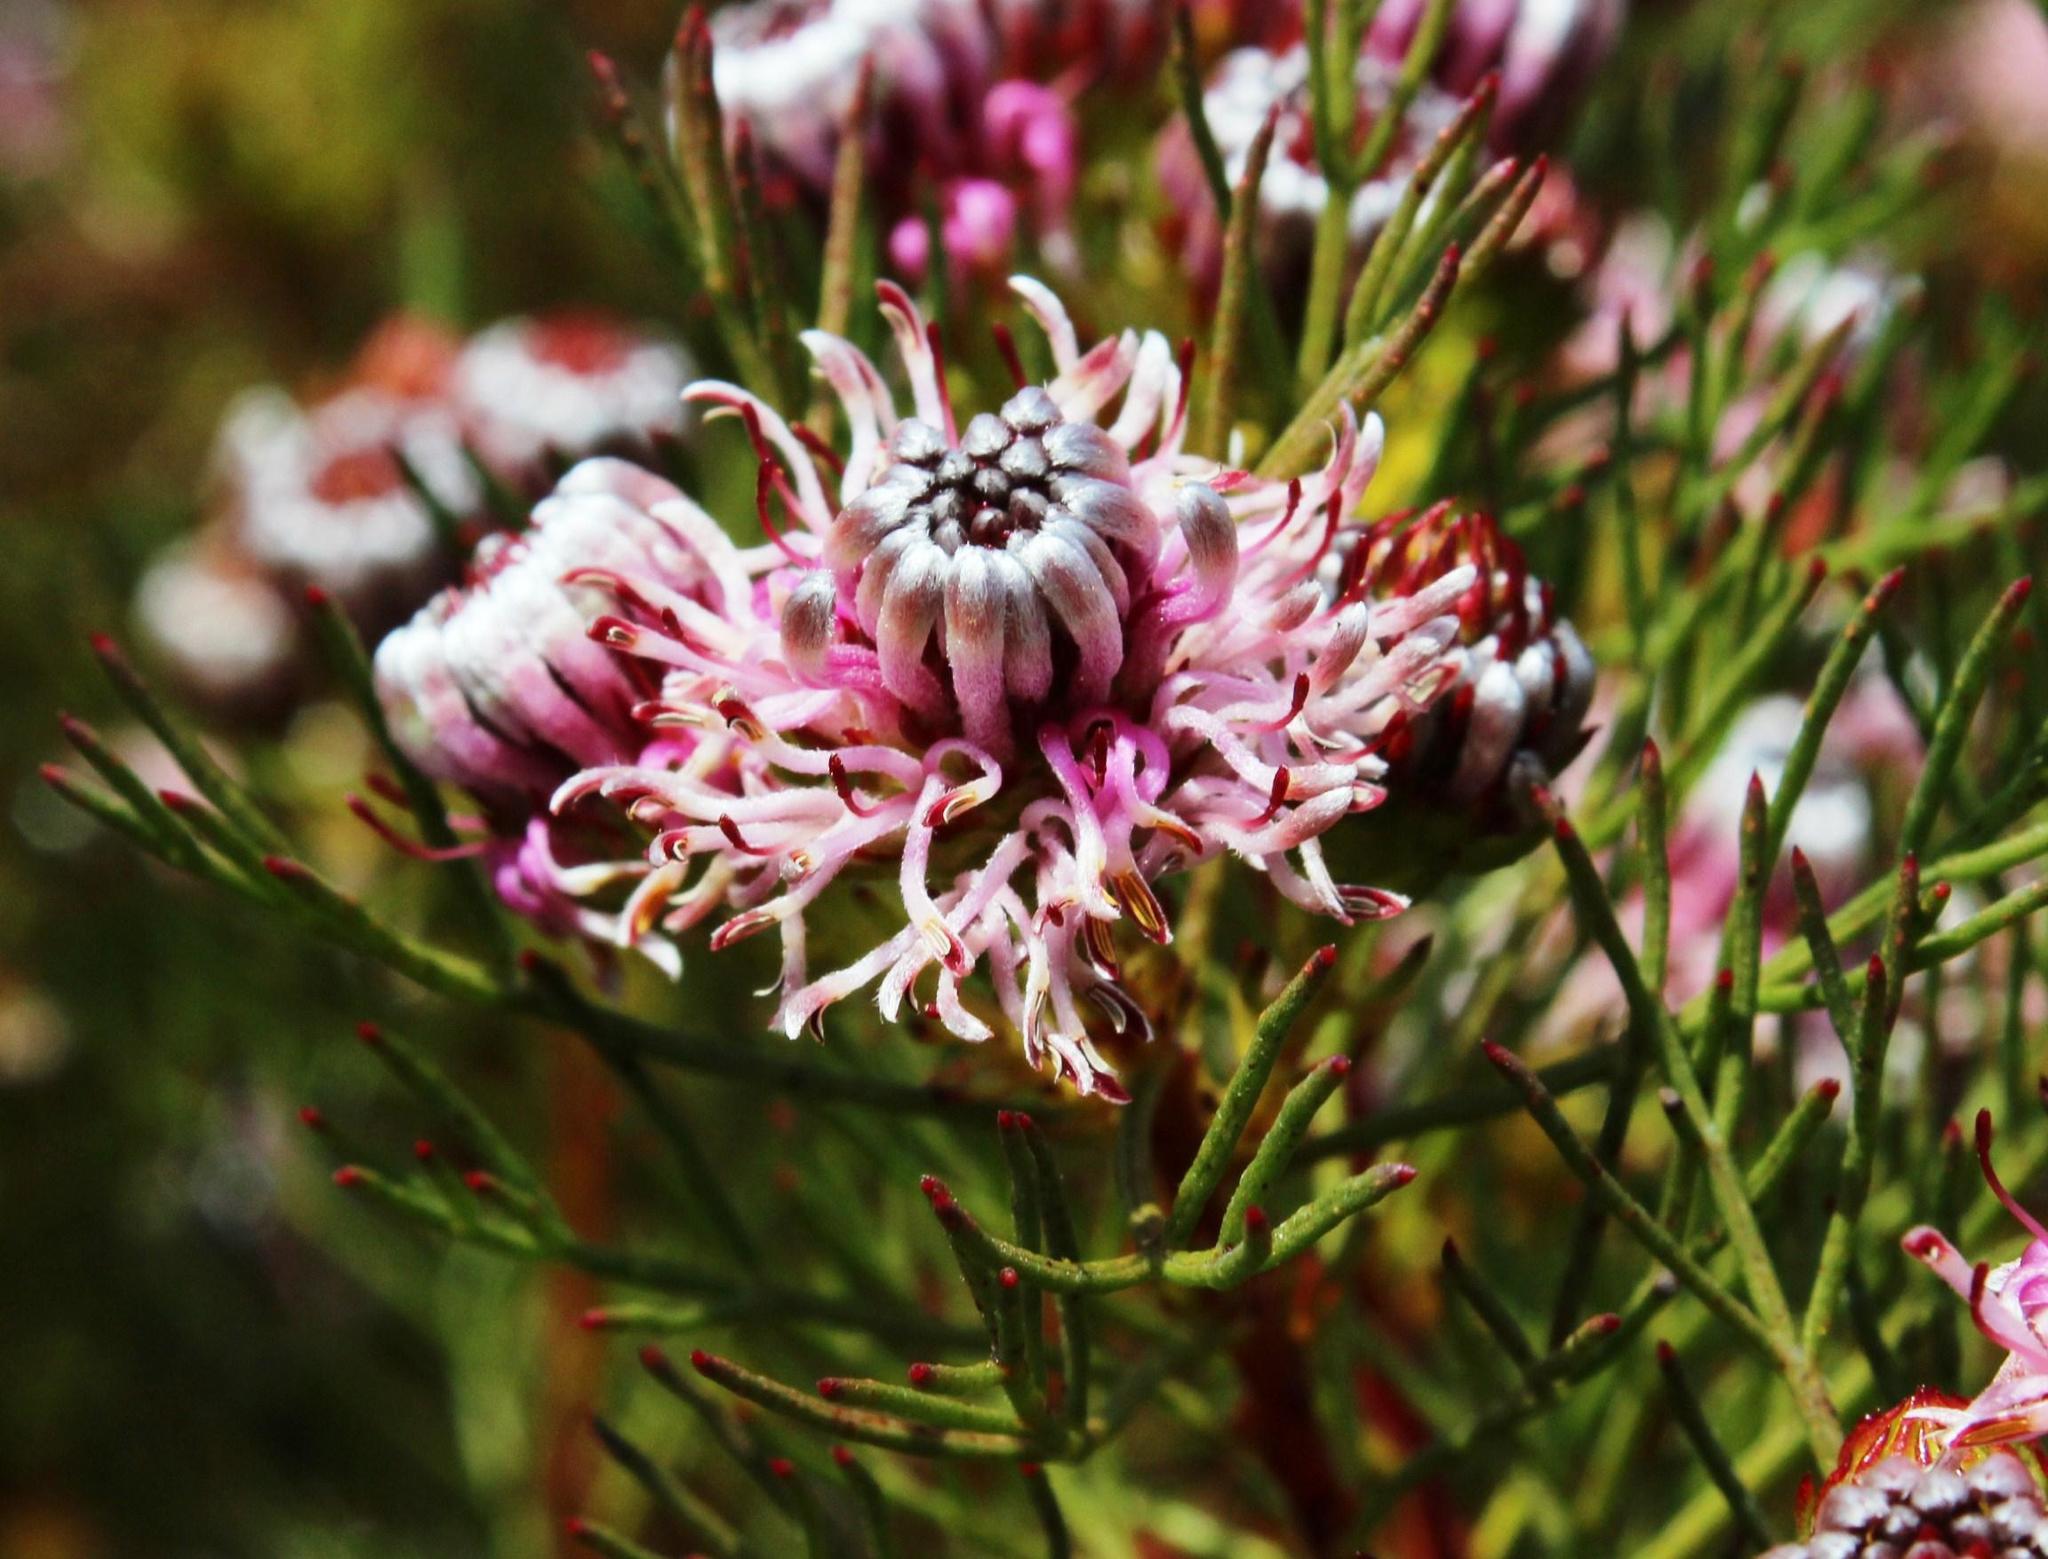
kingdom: Plantae
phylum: Tracheophyta
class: Magnoliopsida
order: Proteales
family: Proteaceae
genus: Serruria
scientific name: Serruria
